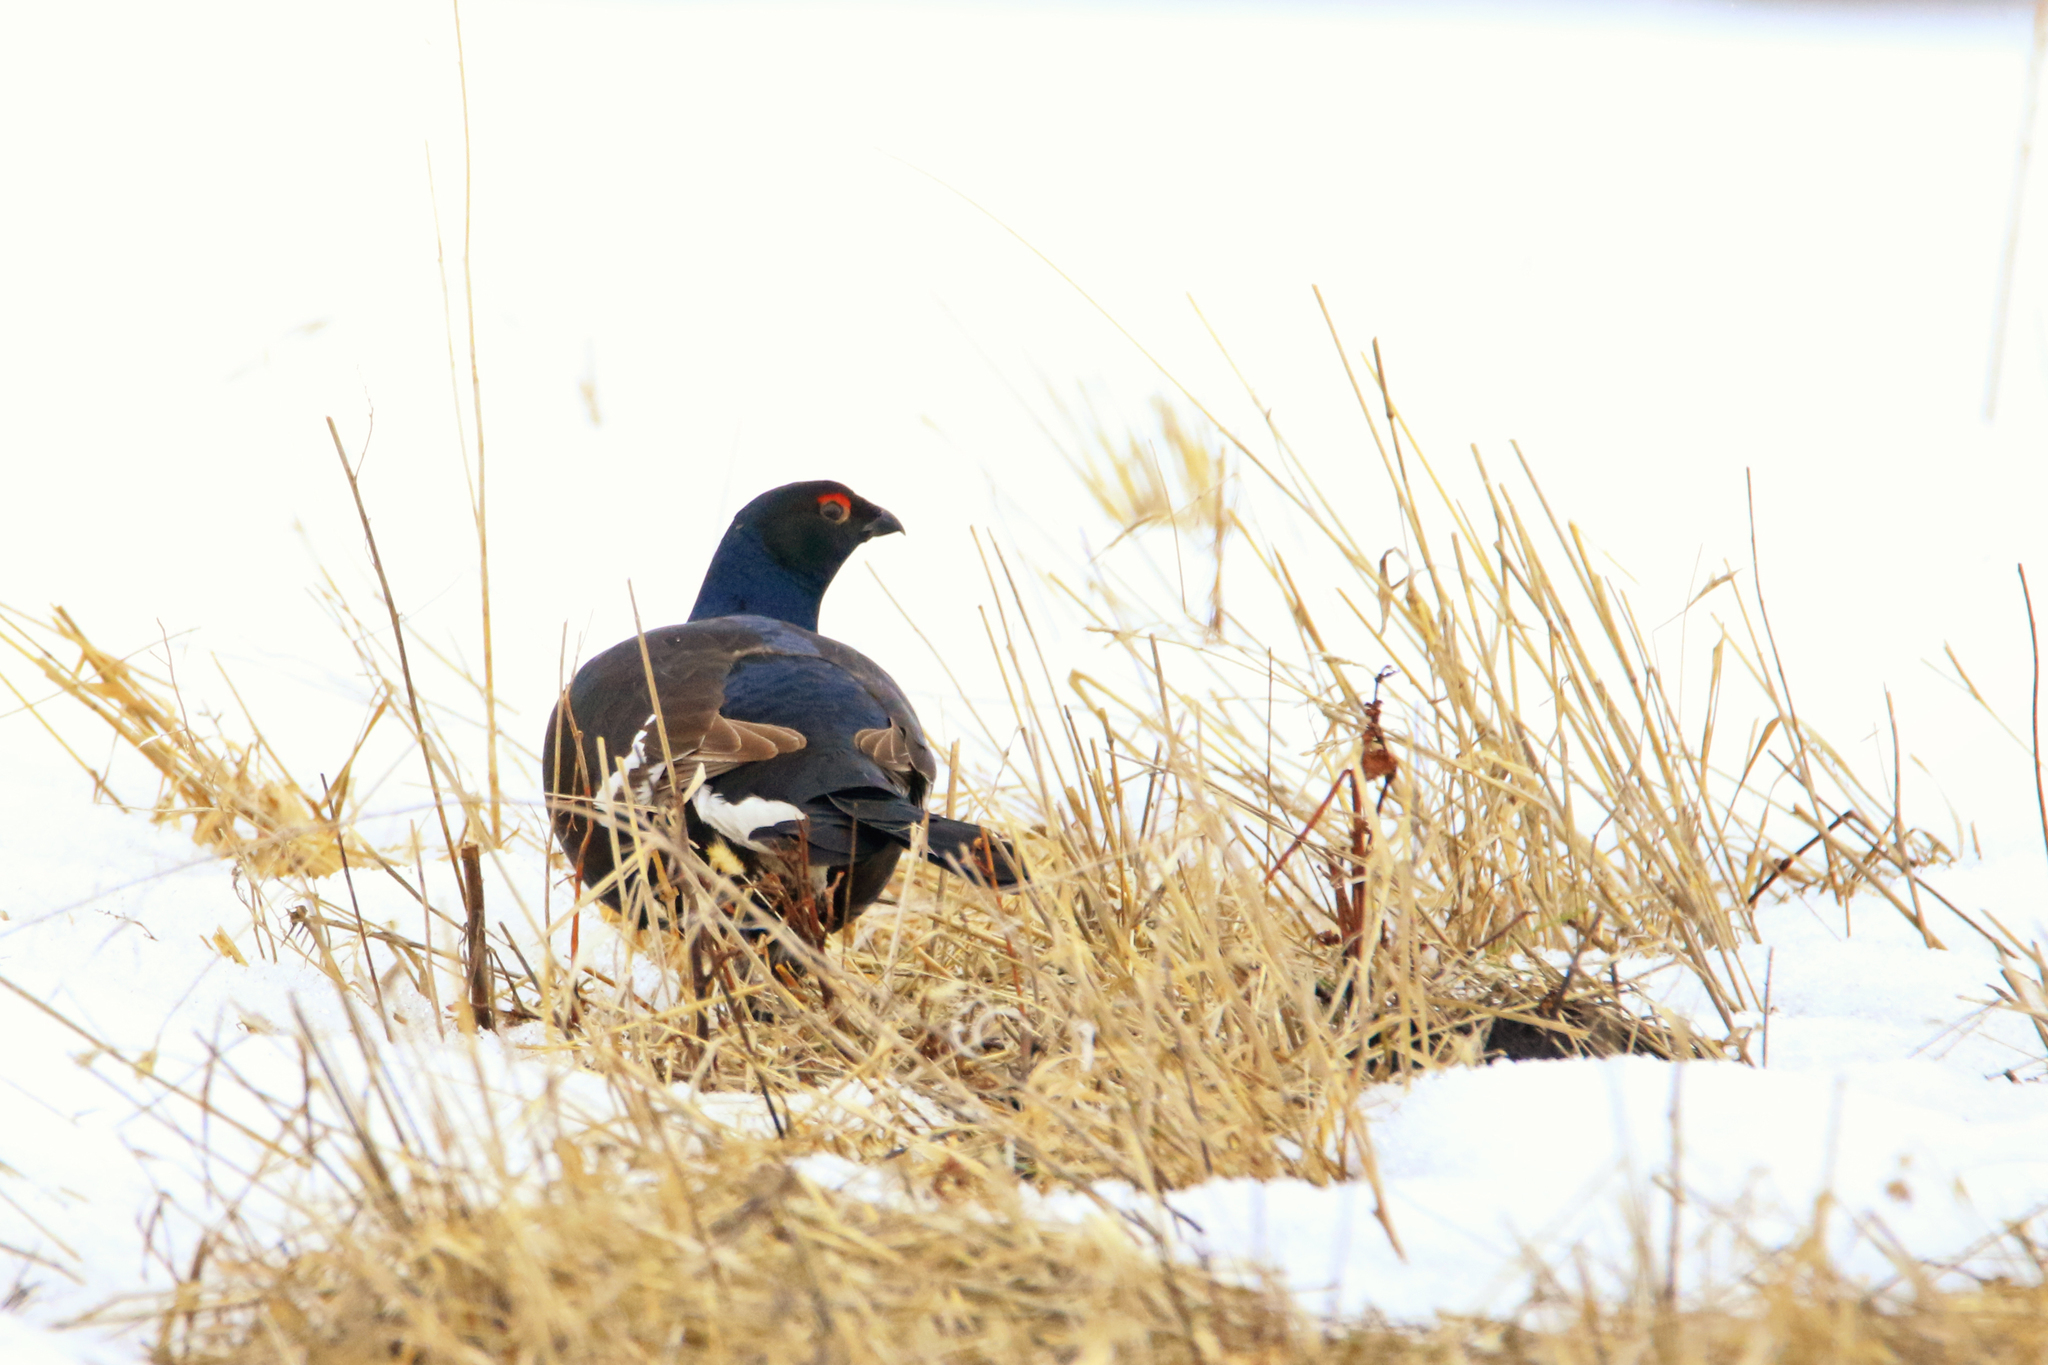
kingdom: Animalia
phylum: Chordata
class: Aves
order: Galliformes
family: Phasianidae
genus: Lyrurus
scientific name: Lyrurus tetrix
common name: Black grouse
